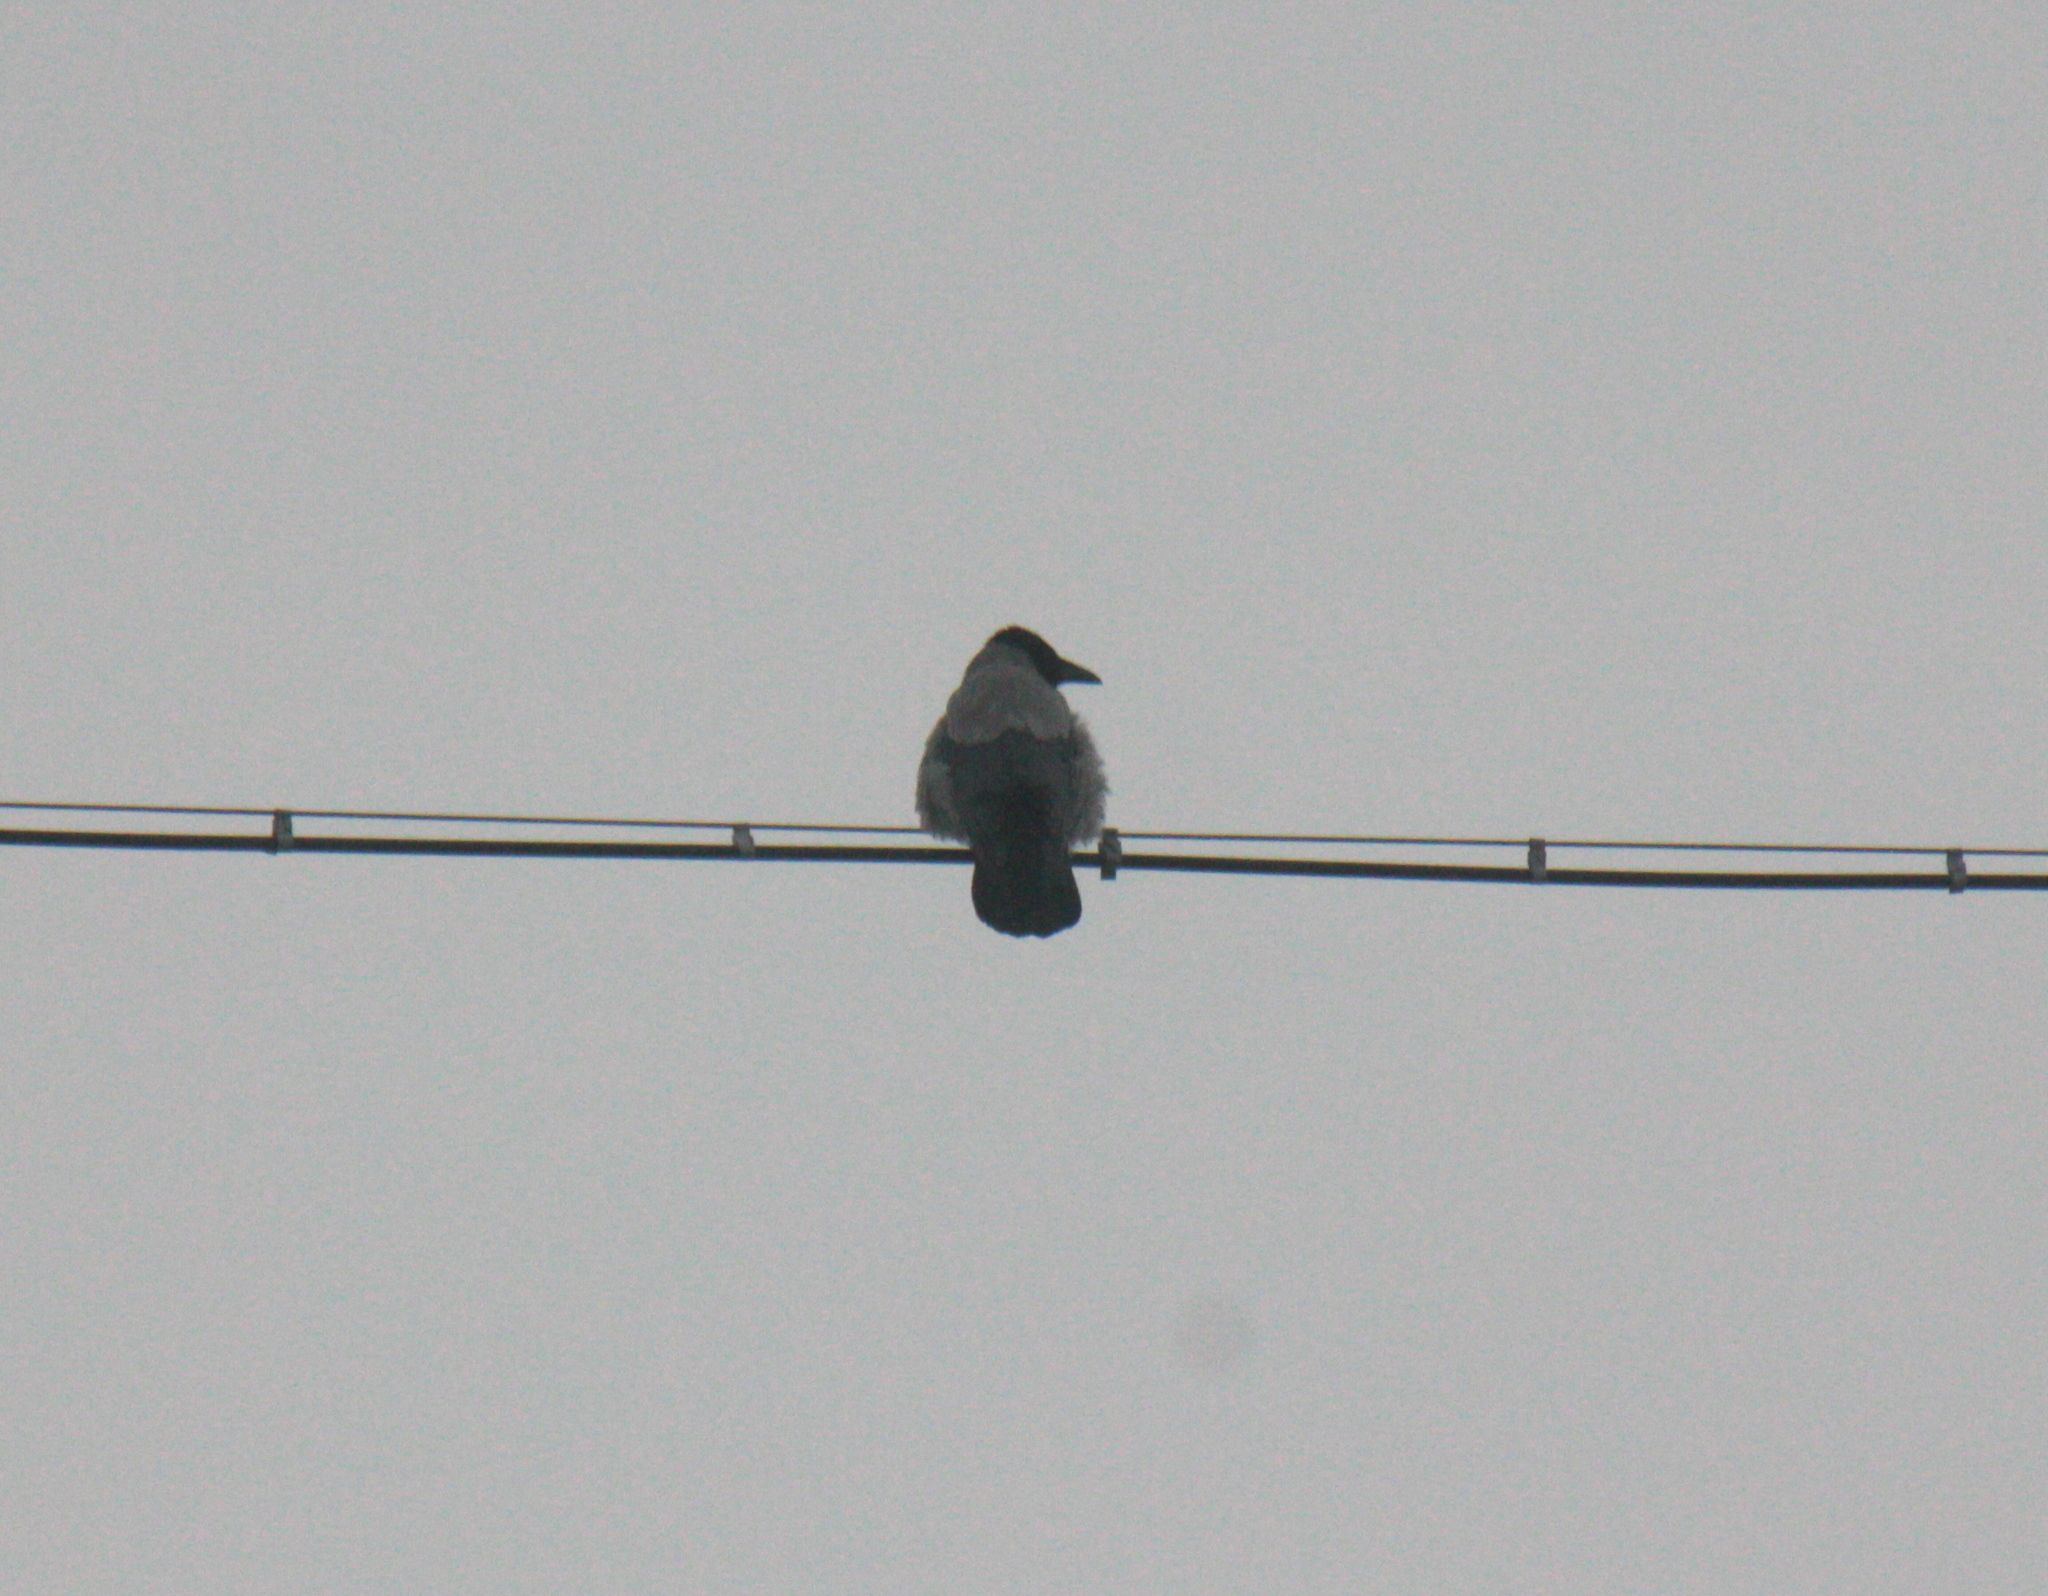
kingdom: Animalia
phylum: Chordata
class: Aves
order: Passeriformes
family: Corvidae
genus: Corvus
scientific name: Corvus cornix
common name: Hooded crow
